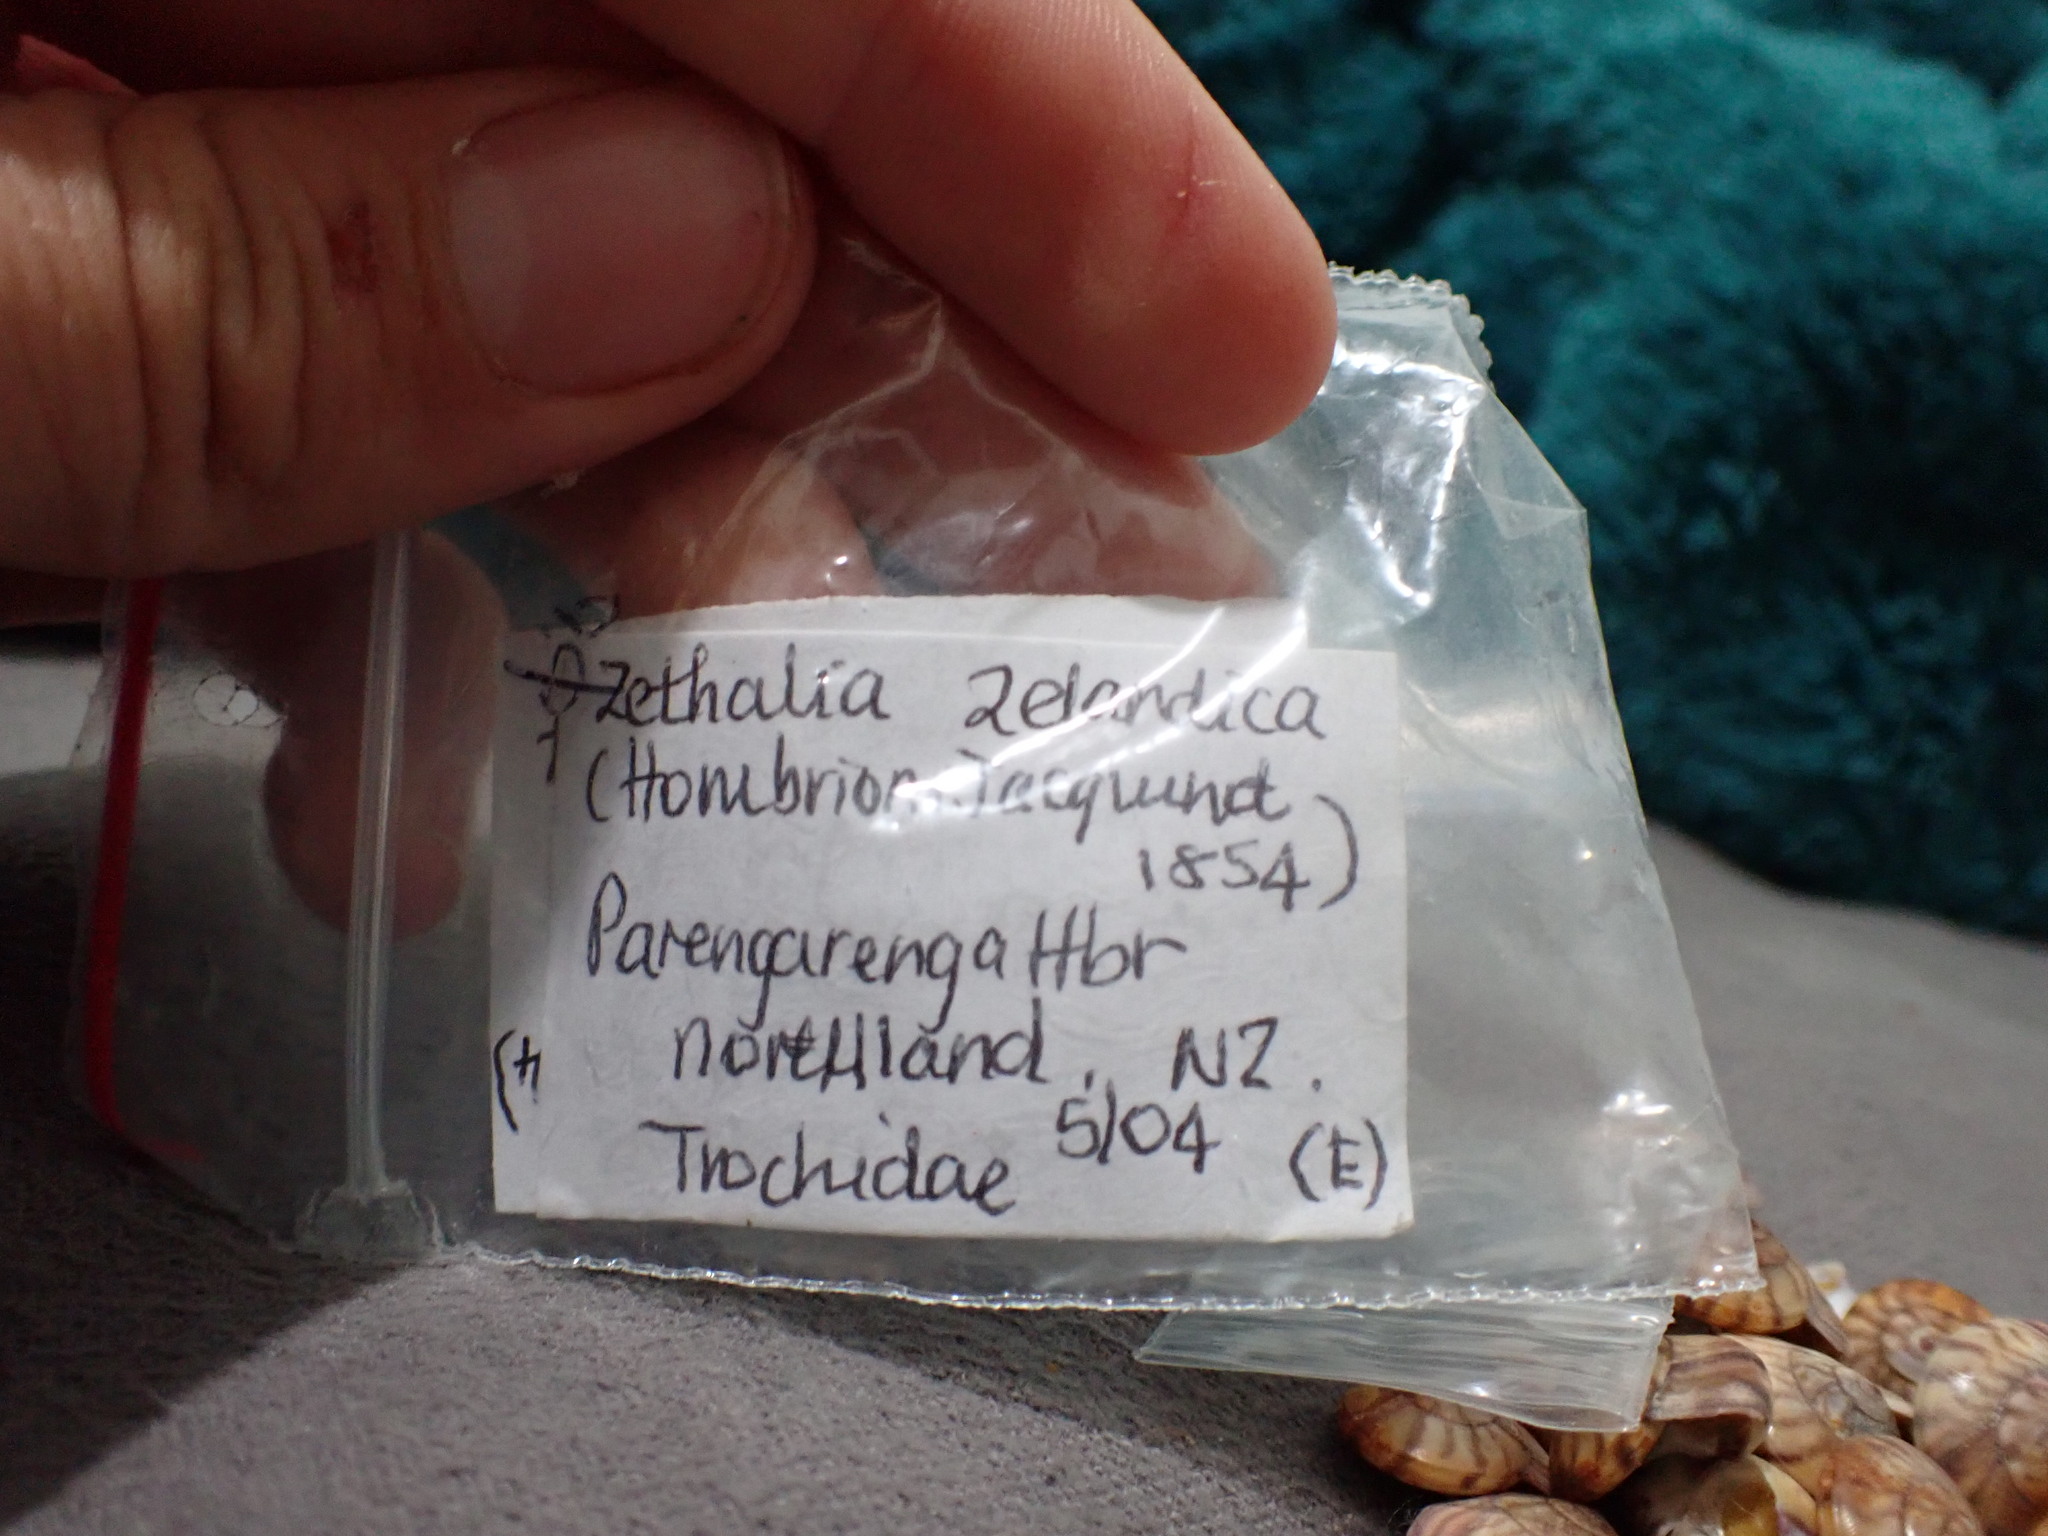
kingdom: Animalia
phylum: Mollusca
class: Gastropoda
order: Trochida
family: Trochidae
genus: Zethalia
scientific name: Zethalia zelandica
